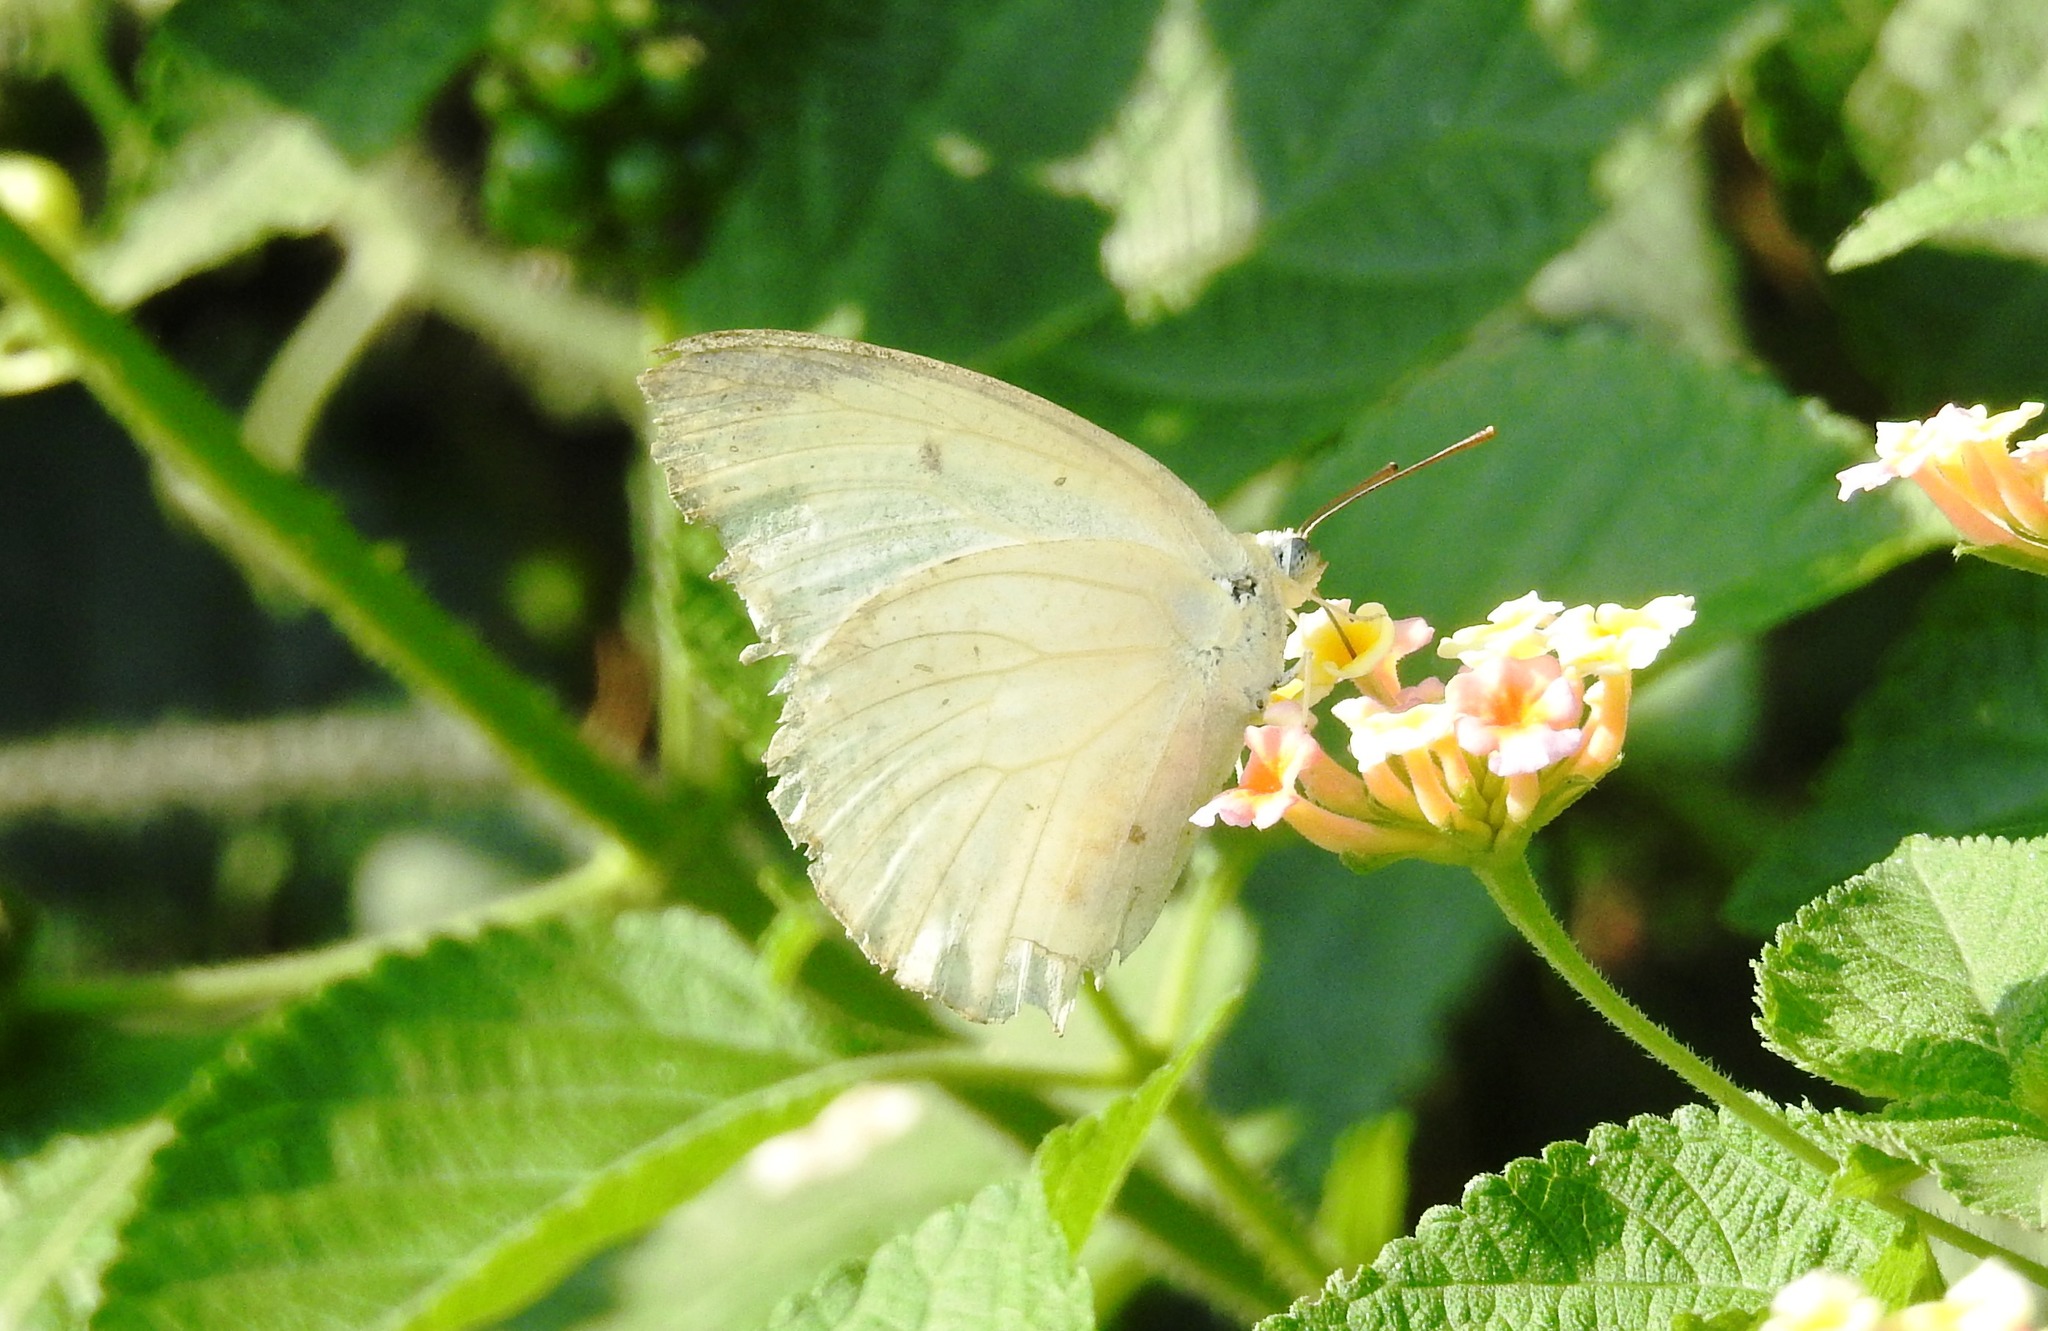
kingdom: Animalia
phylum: Arthropoda
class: Insecta
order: Lepidoptera
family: Pieridae
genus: Catopsilia
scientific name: Catopsilia pomona
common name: Common emigrant
